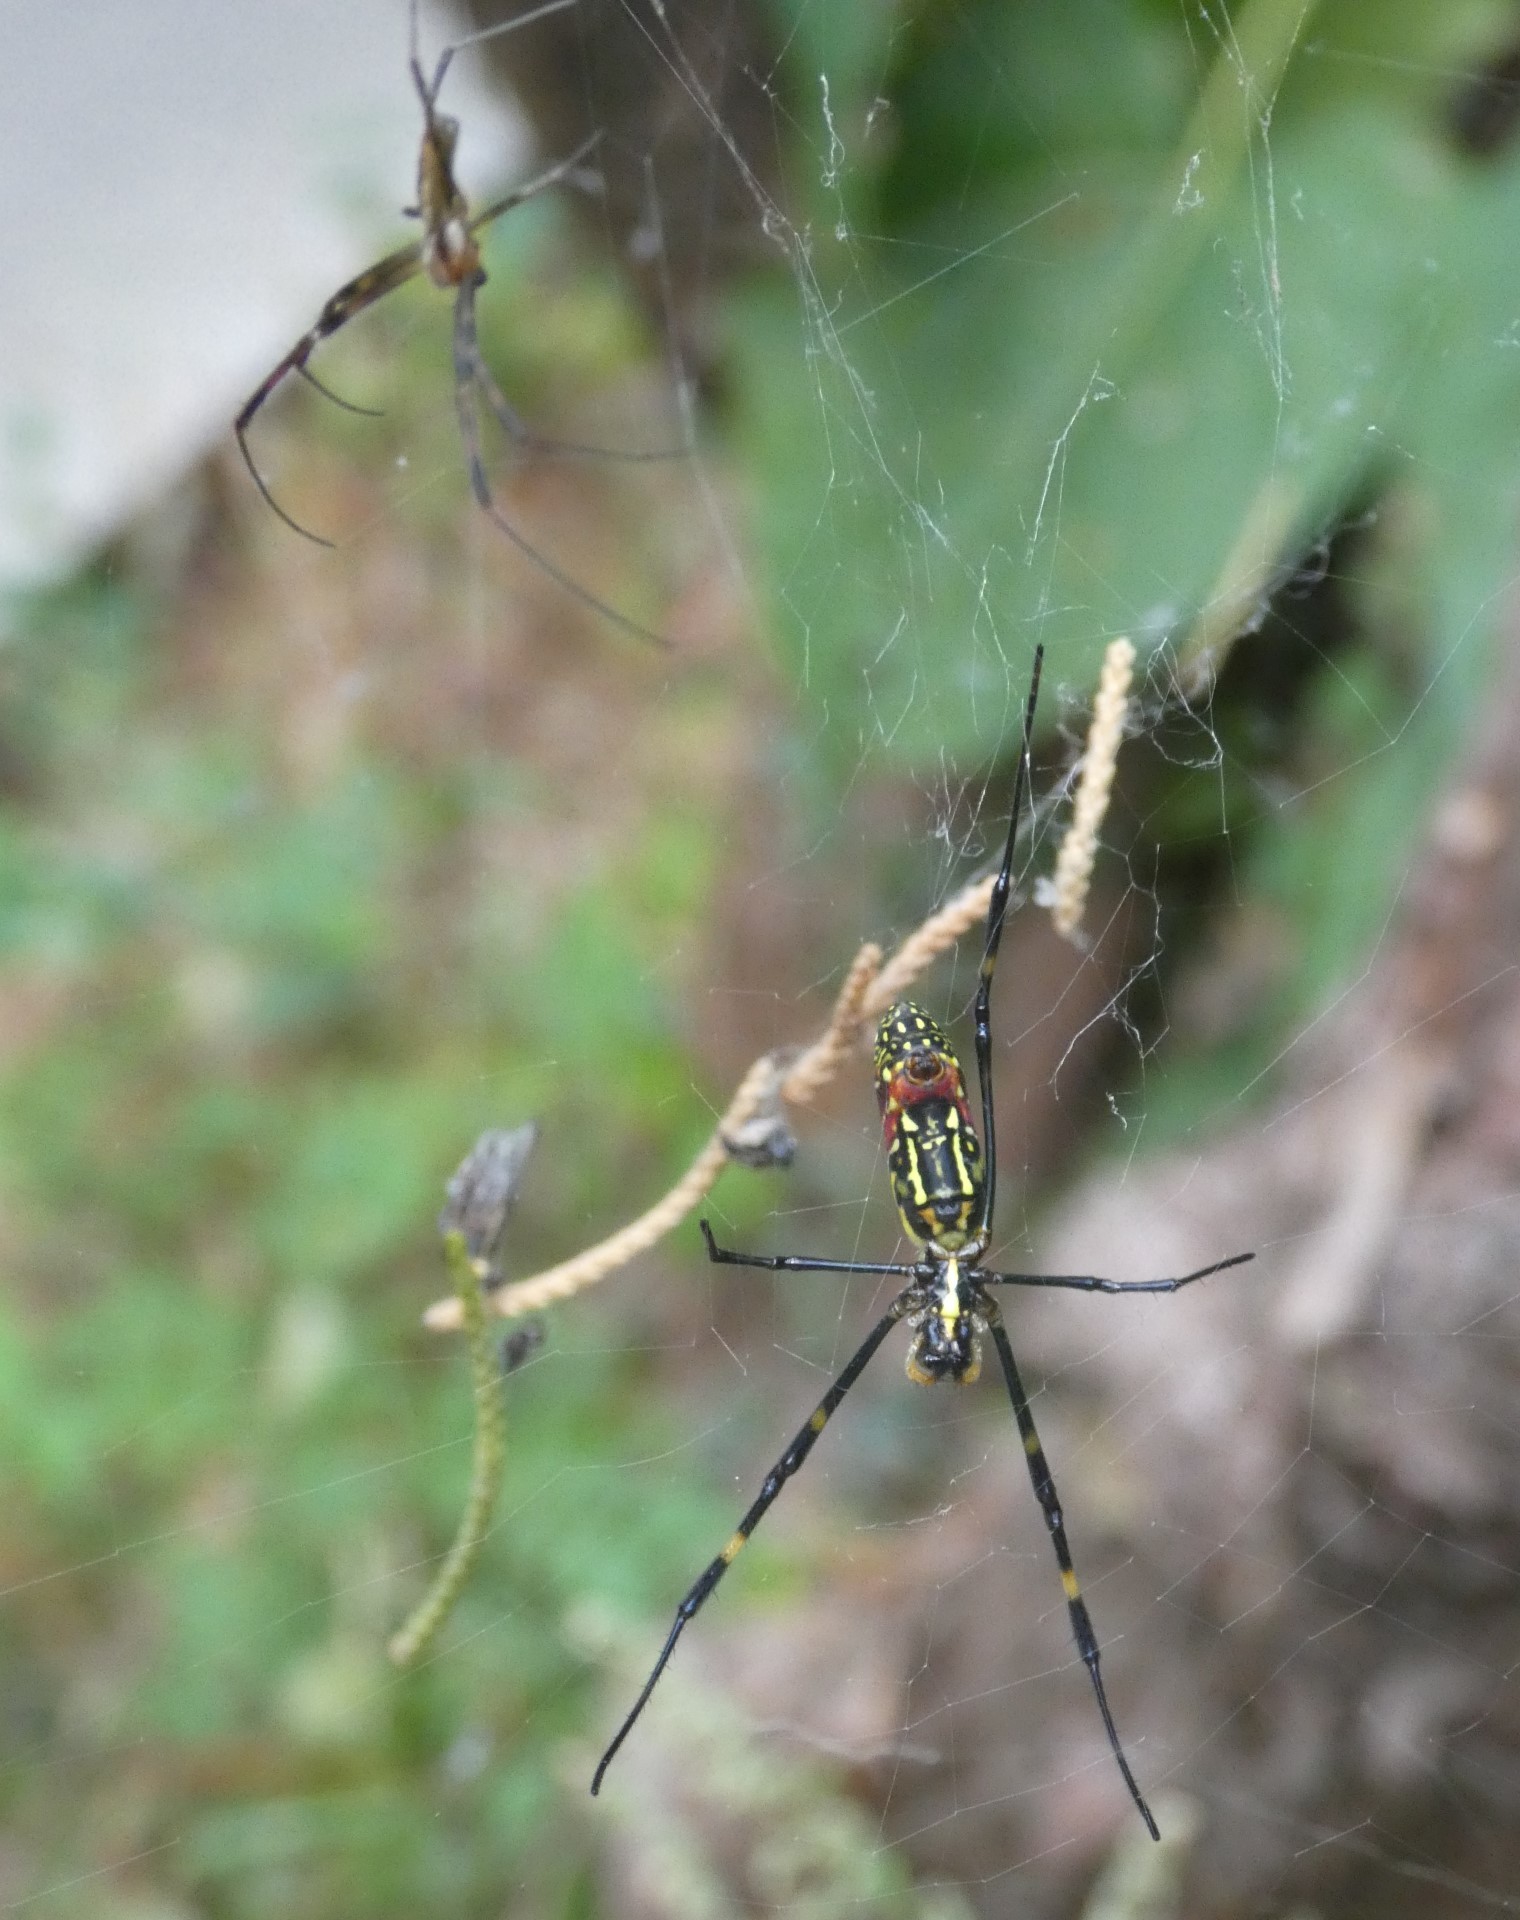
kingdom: Animalia
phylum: Arthropoda
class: Arachnida
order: Araneae
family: Araneidae
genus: Trichonephila
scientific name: Trichonephila clavata
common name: Jorō spider
